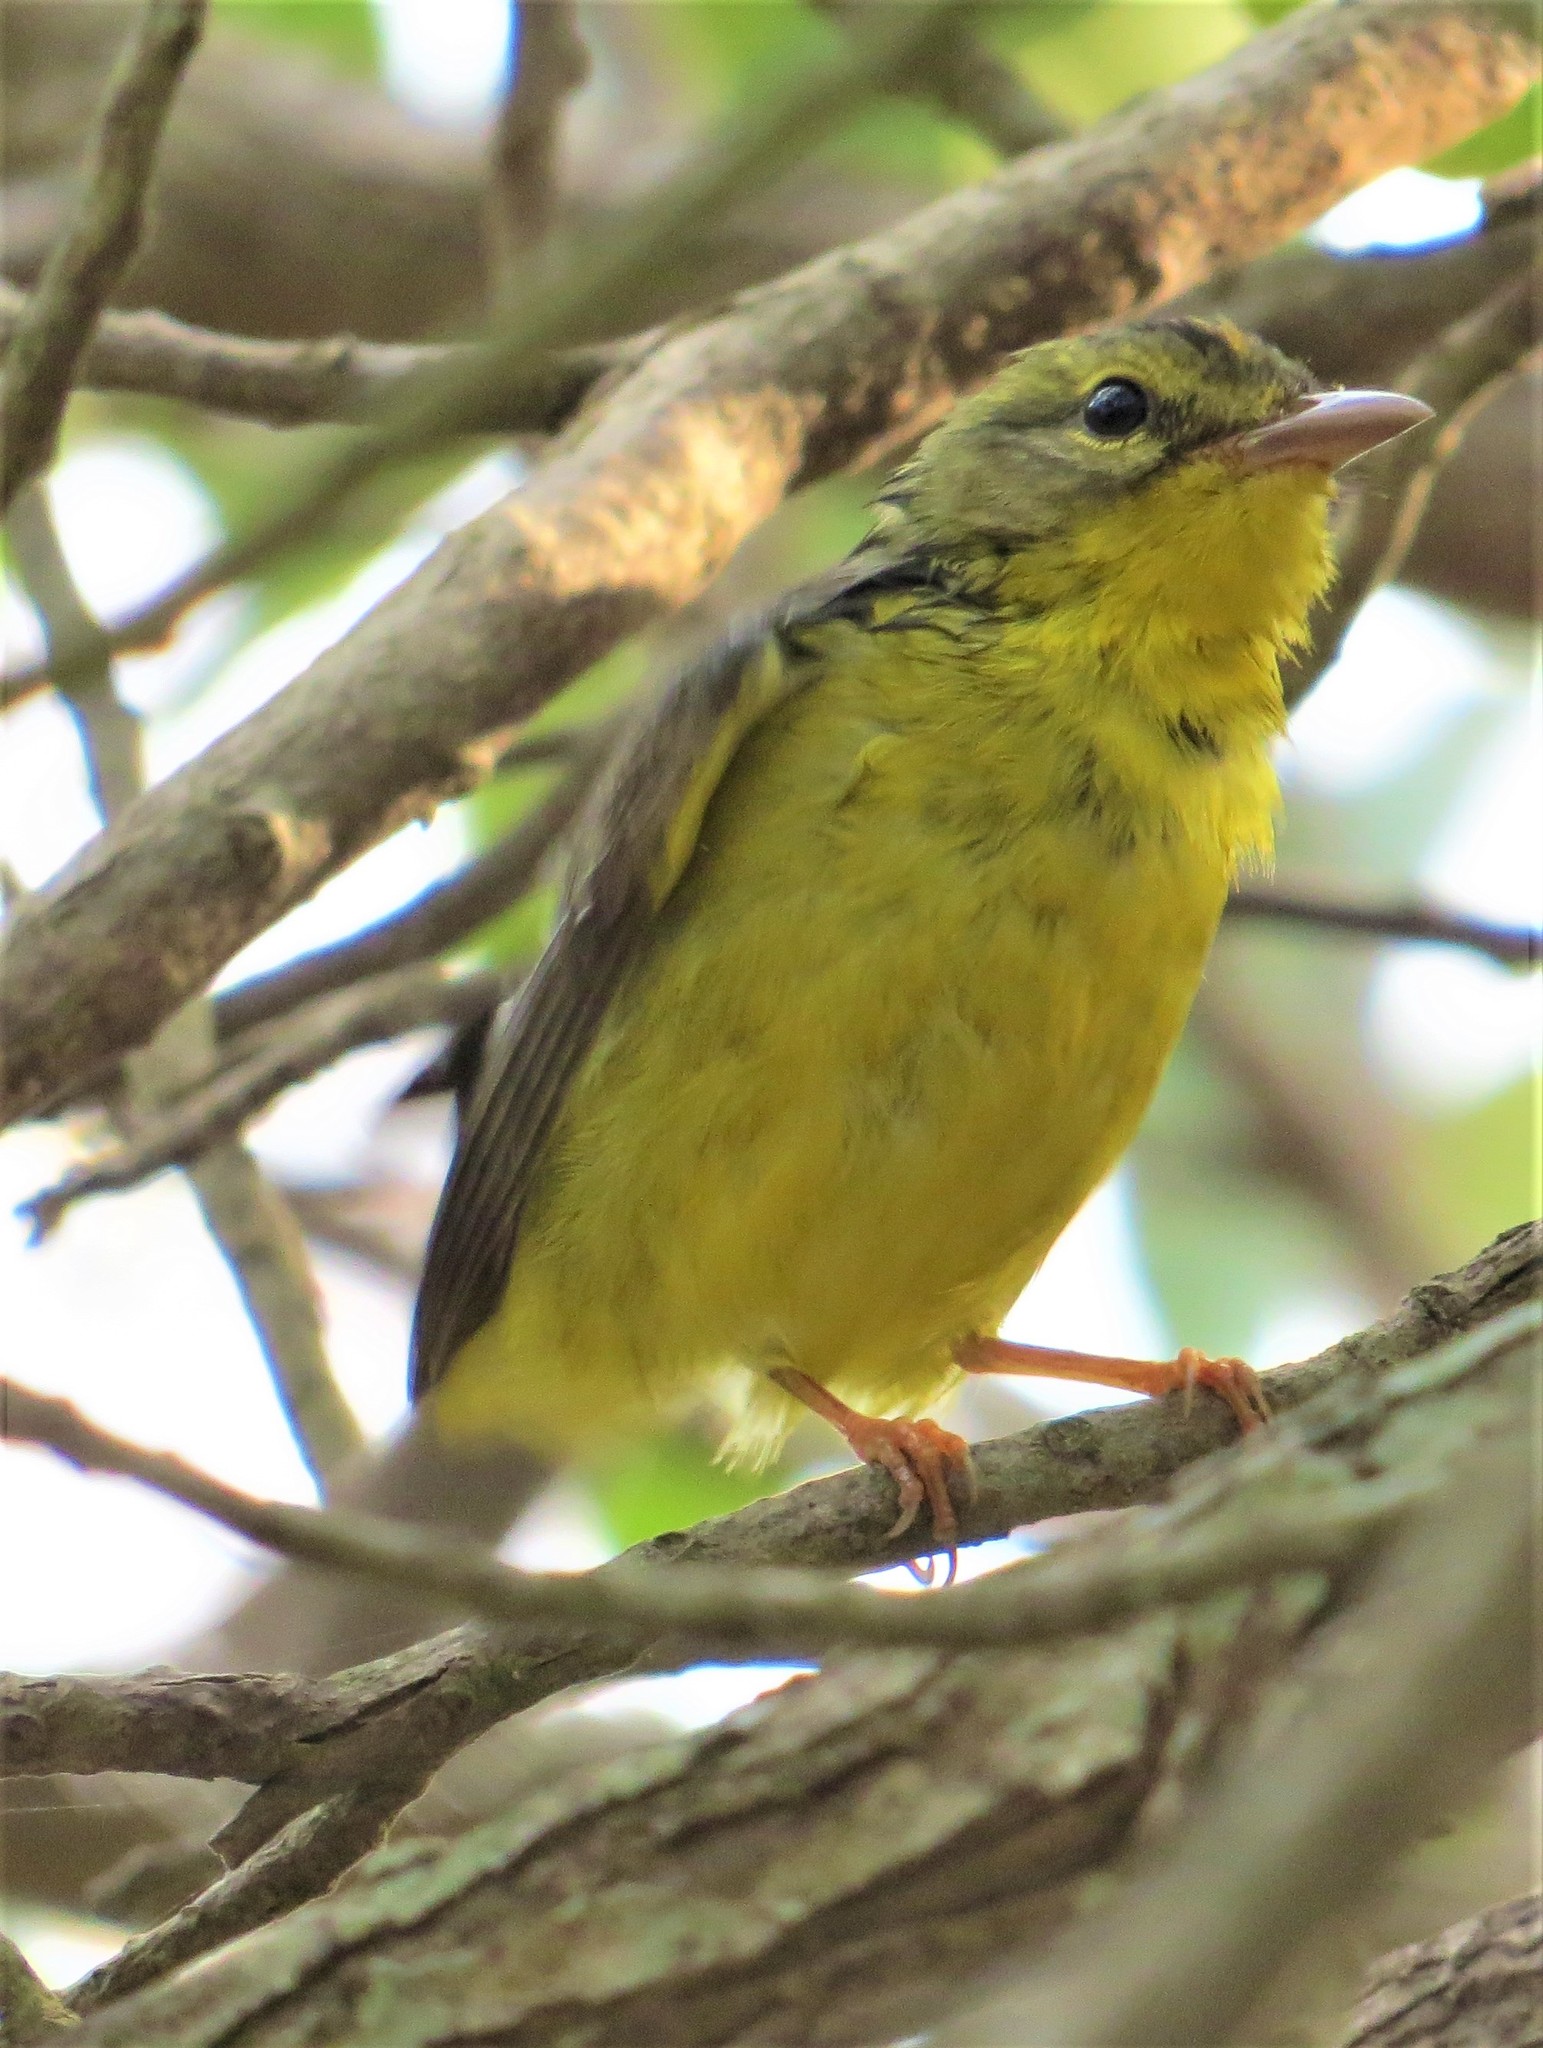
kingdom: Animalia
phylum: Chordata
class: Aves
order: Passeriformes
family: Parulidae
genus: Basileuterus
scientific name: Basileuterus culicivorus
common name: Golden-crowned warbler
